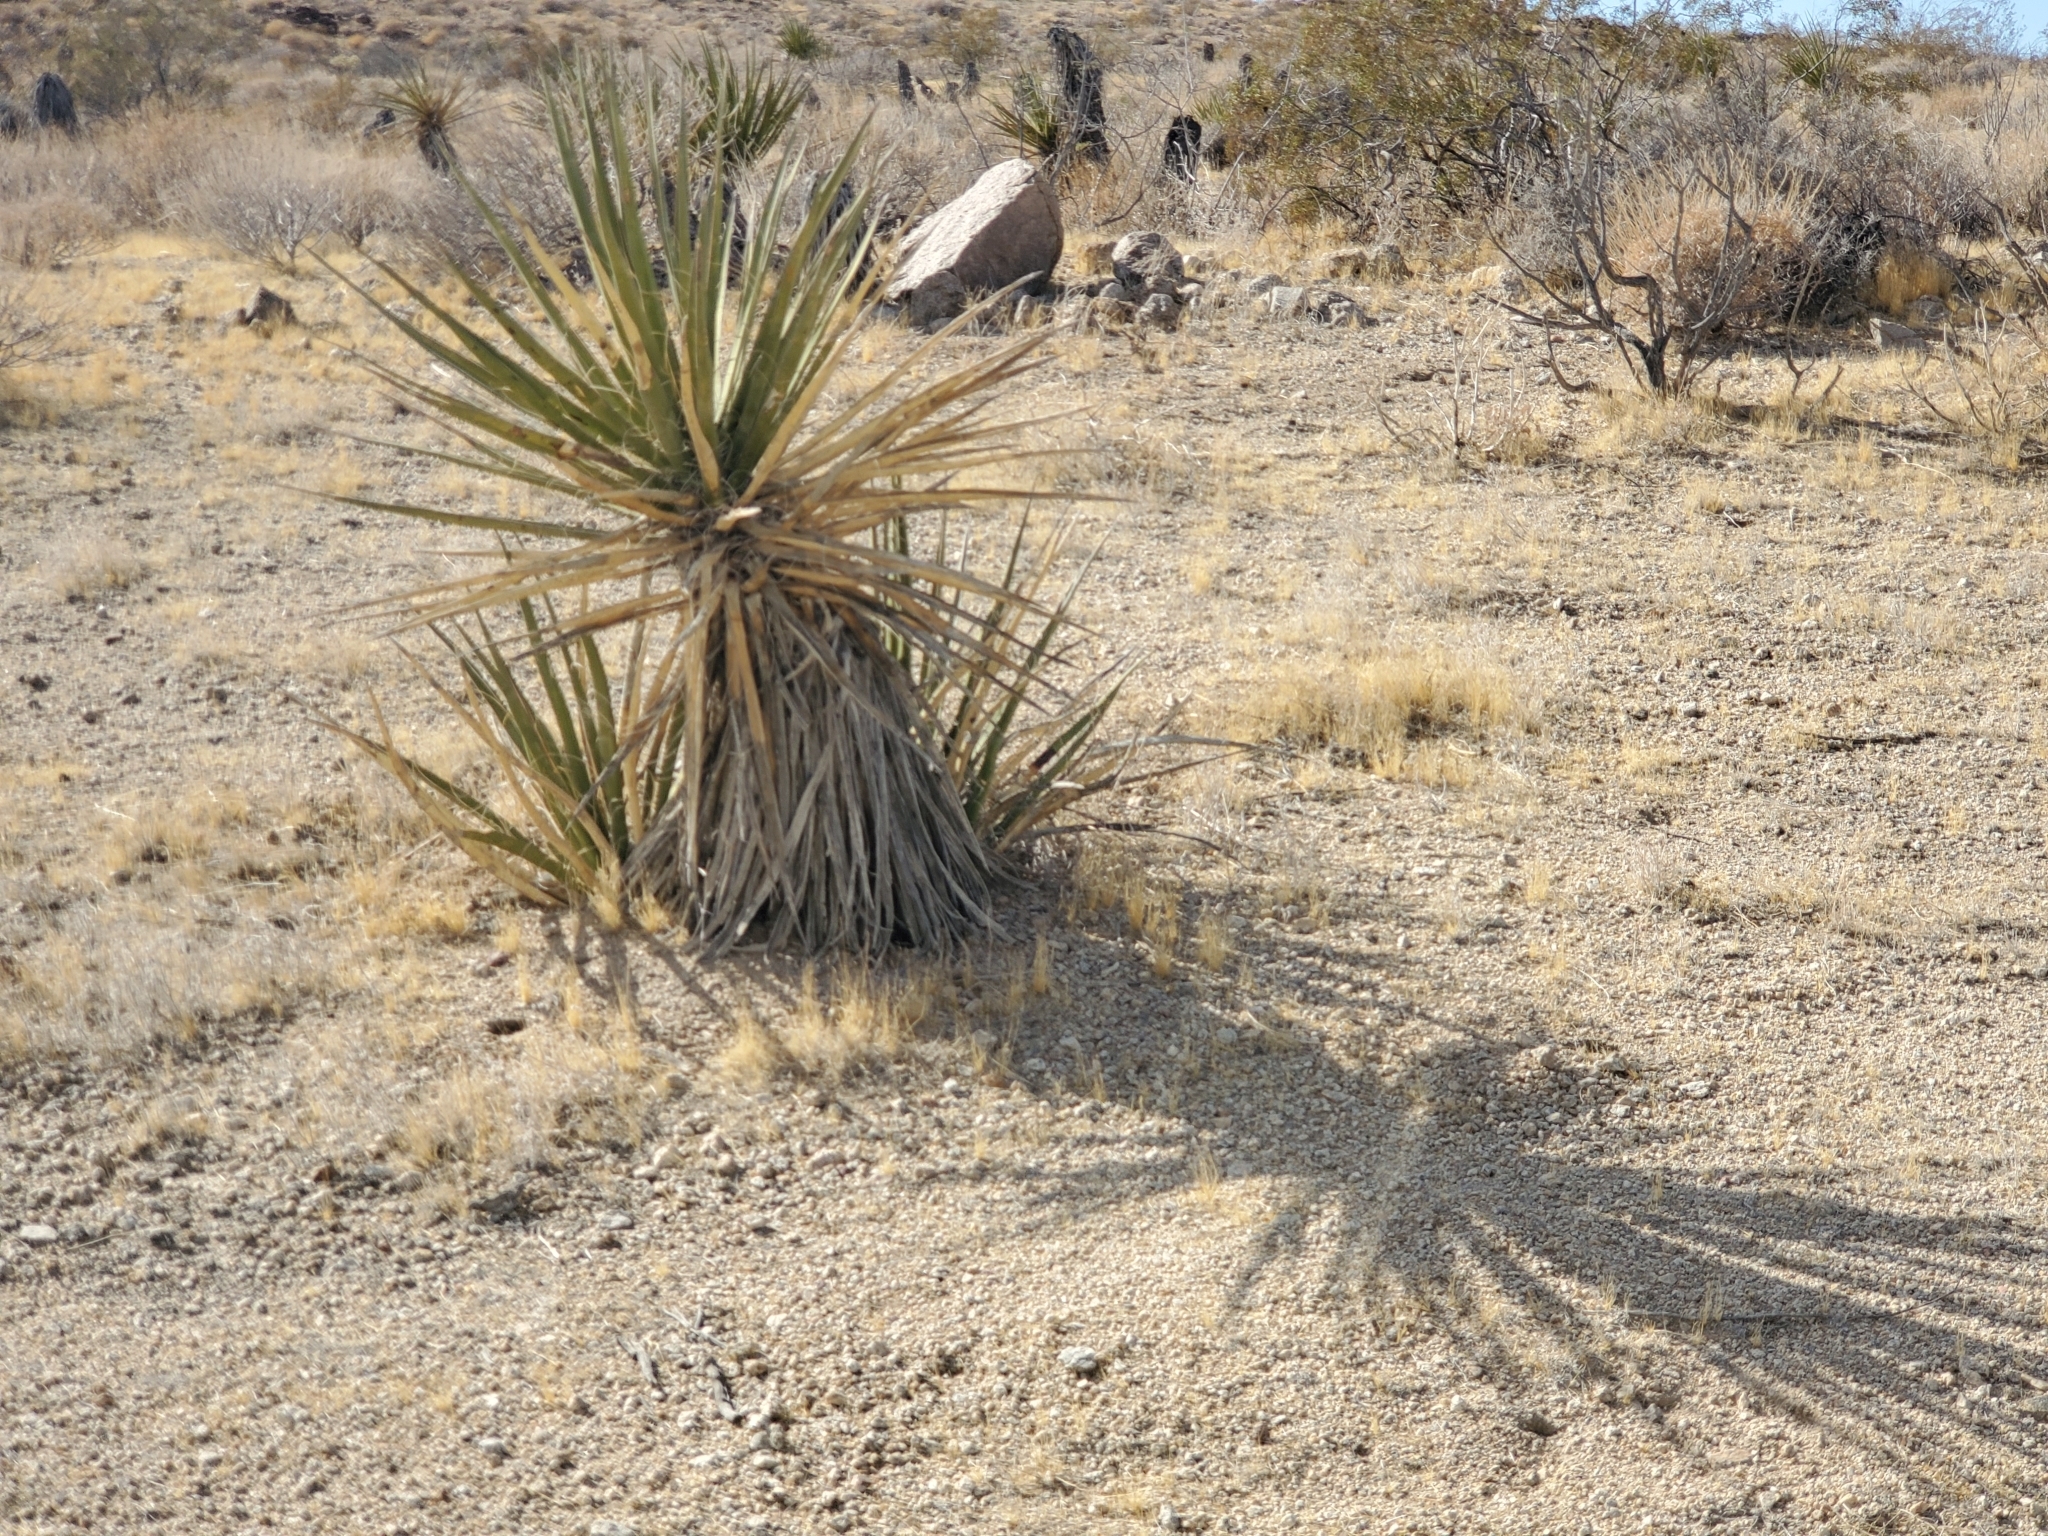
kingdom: Plantae
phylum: Tracheophyta
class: Liliopsida
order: Asparagales
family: Asparagaceae
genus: Yucca
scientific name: Yucca schidigera
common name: Mojave yucca
